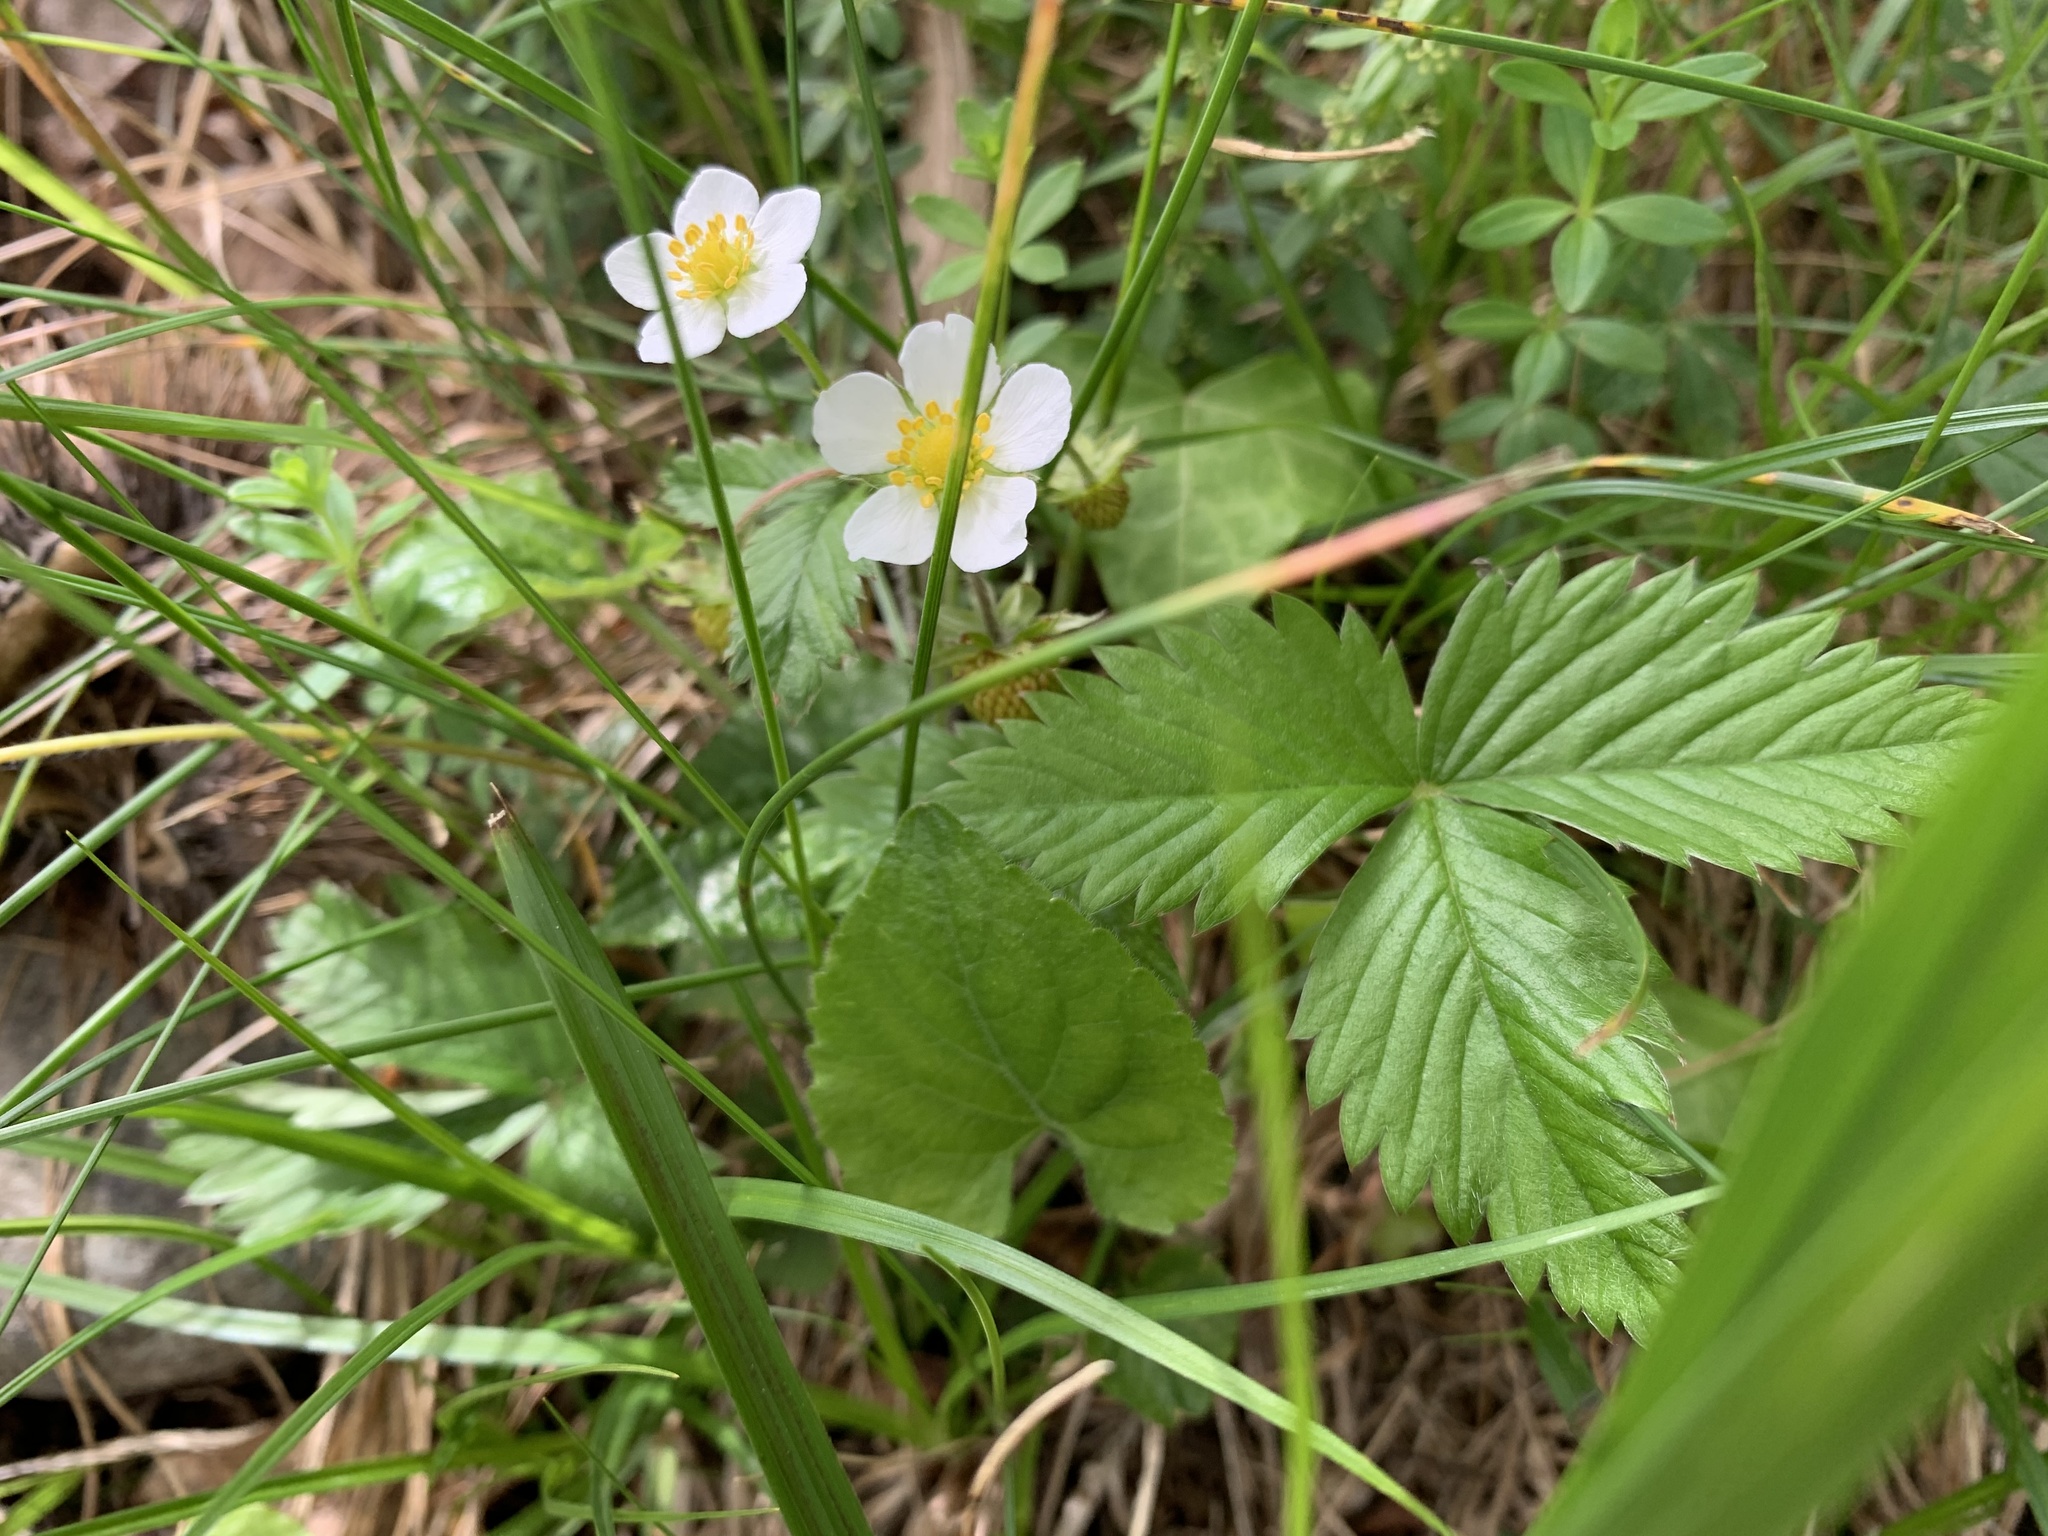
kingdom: Plantae
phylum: Tracheophyta
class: Magnoliopsida
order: Rosales
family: Rosaceae
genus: Fragaria
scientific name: Fragaria vesca
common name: Wild strawberry
